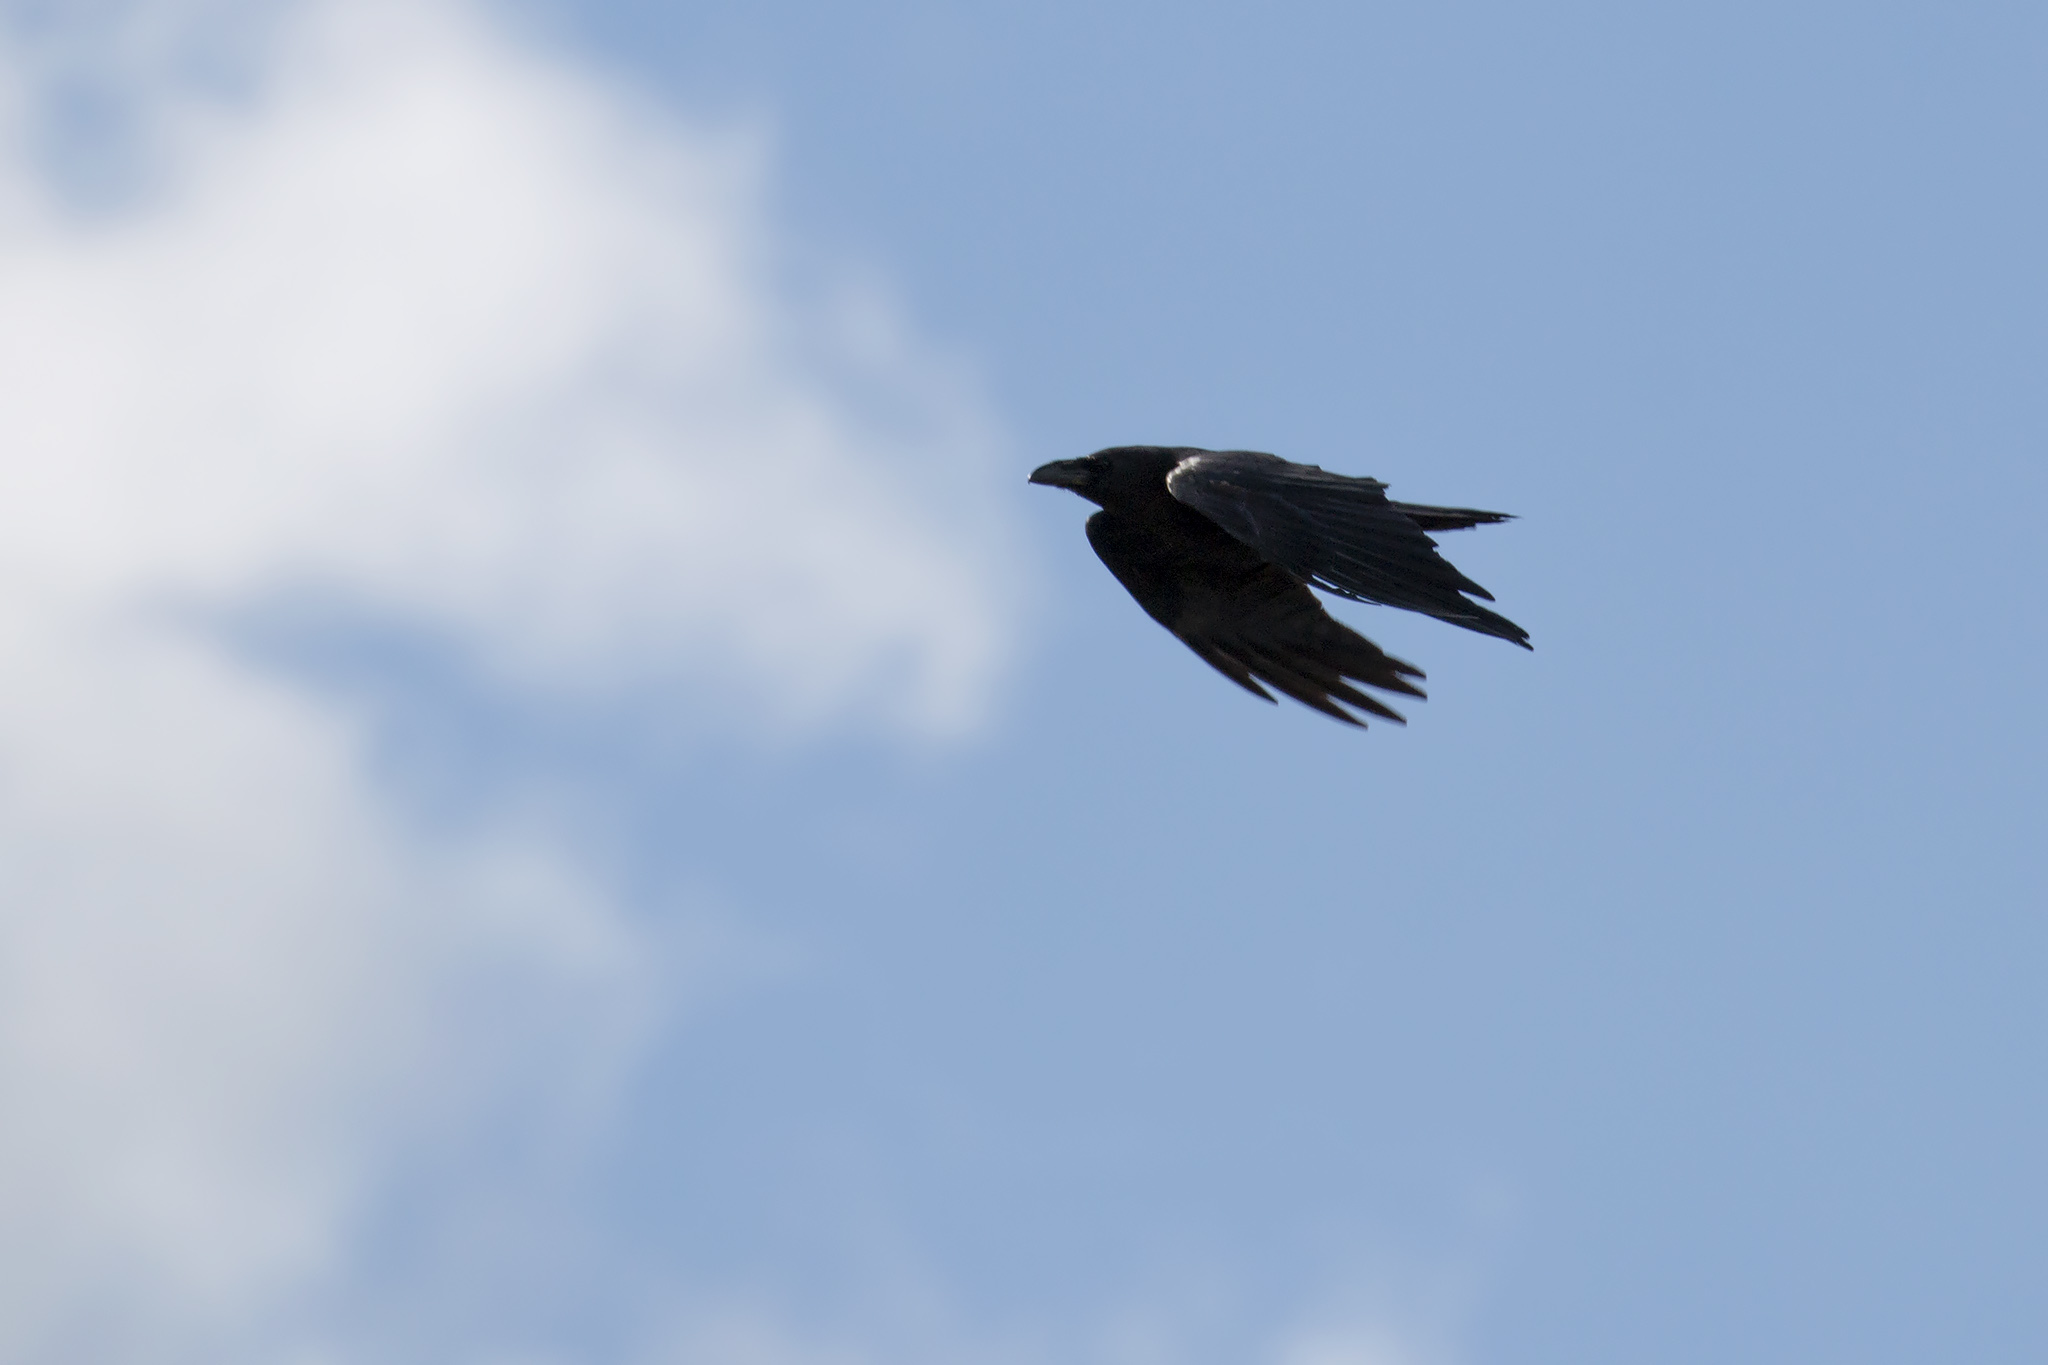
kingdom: Animalia
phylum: Chordata
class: Aves
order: Passeriformes
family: Corvidae
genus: Corvus
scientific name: Corvus corax
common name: Common raven
